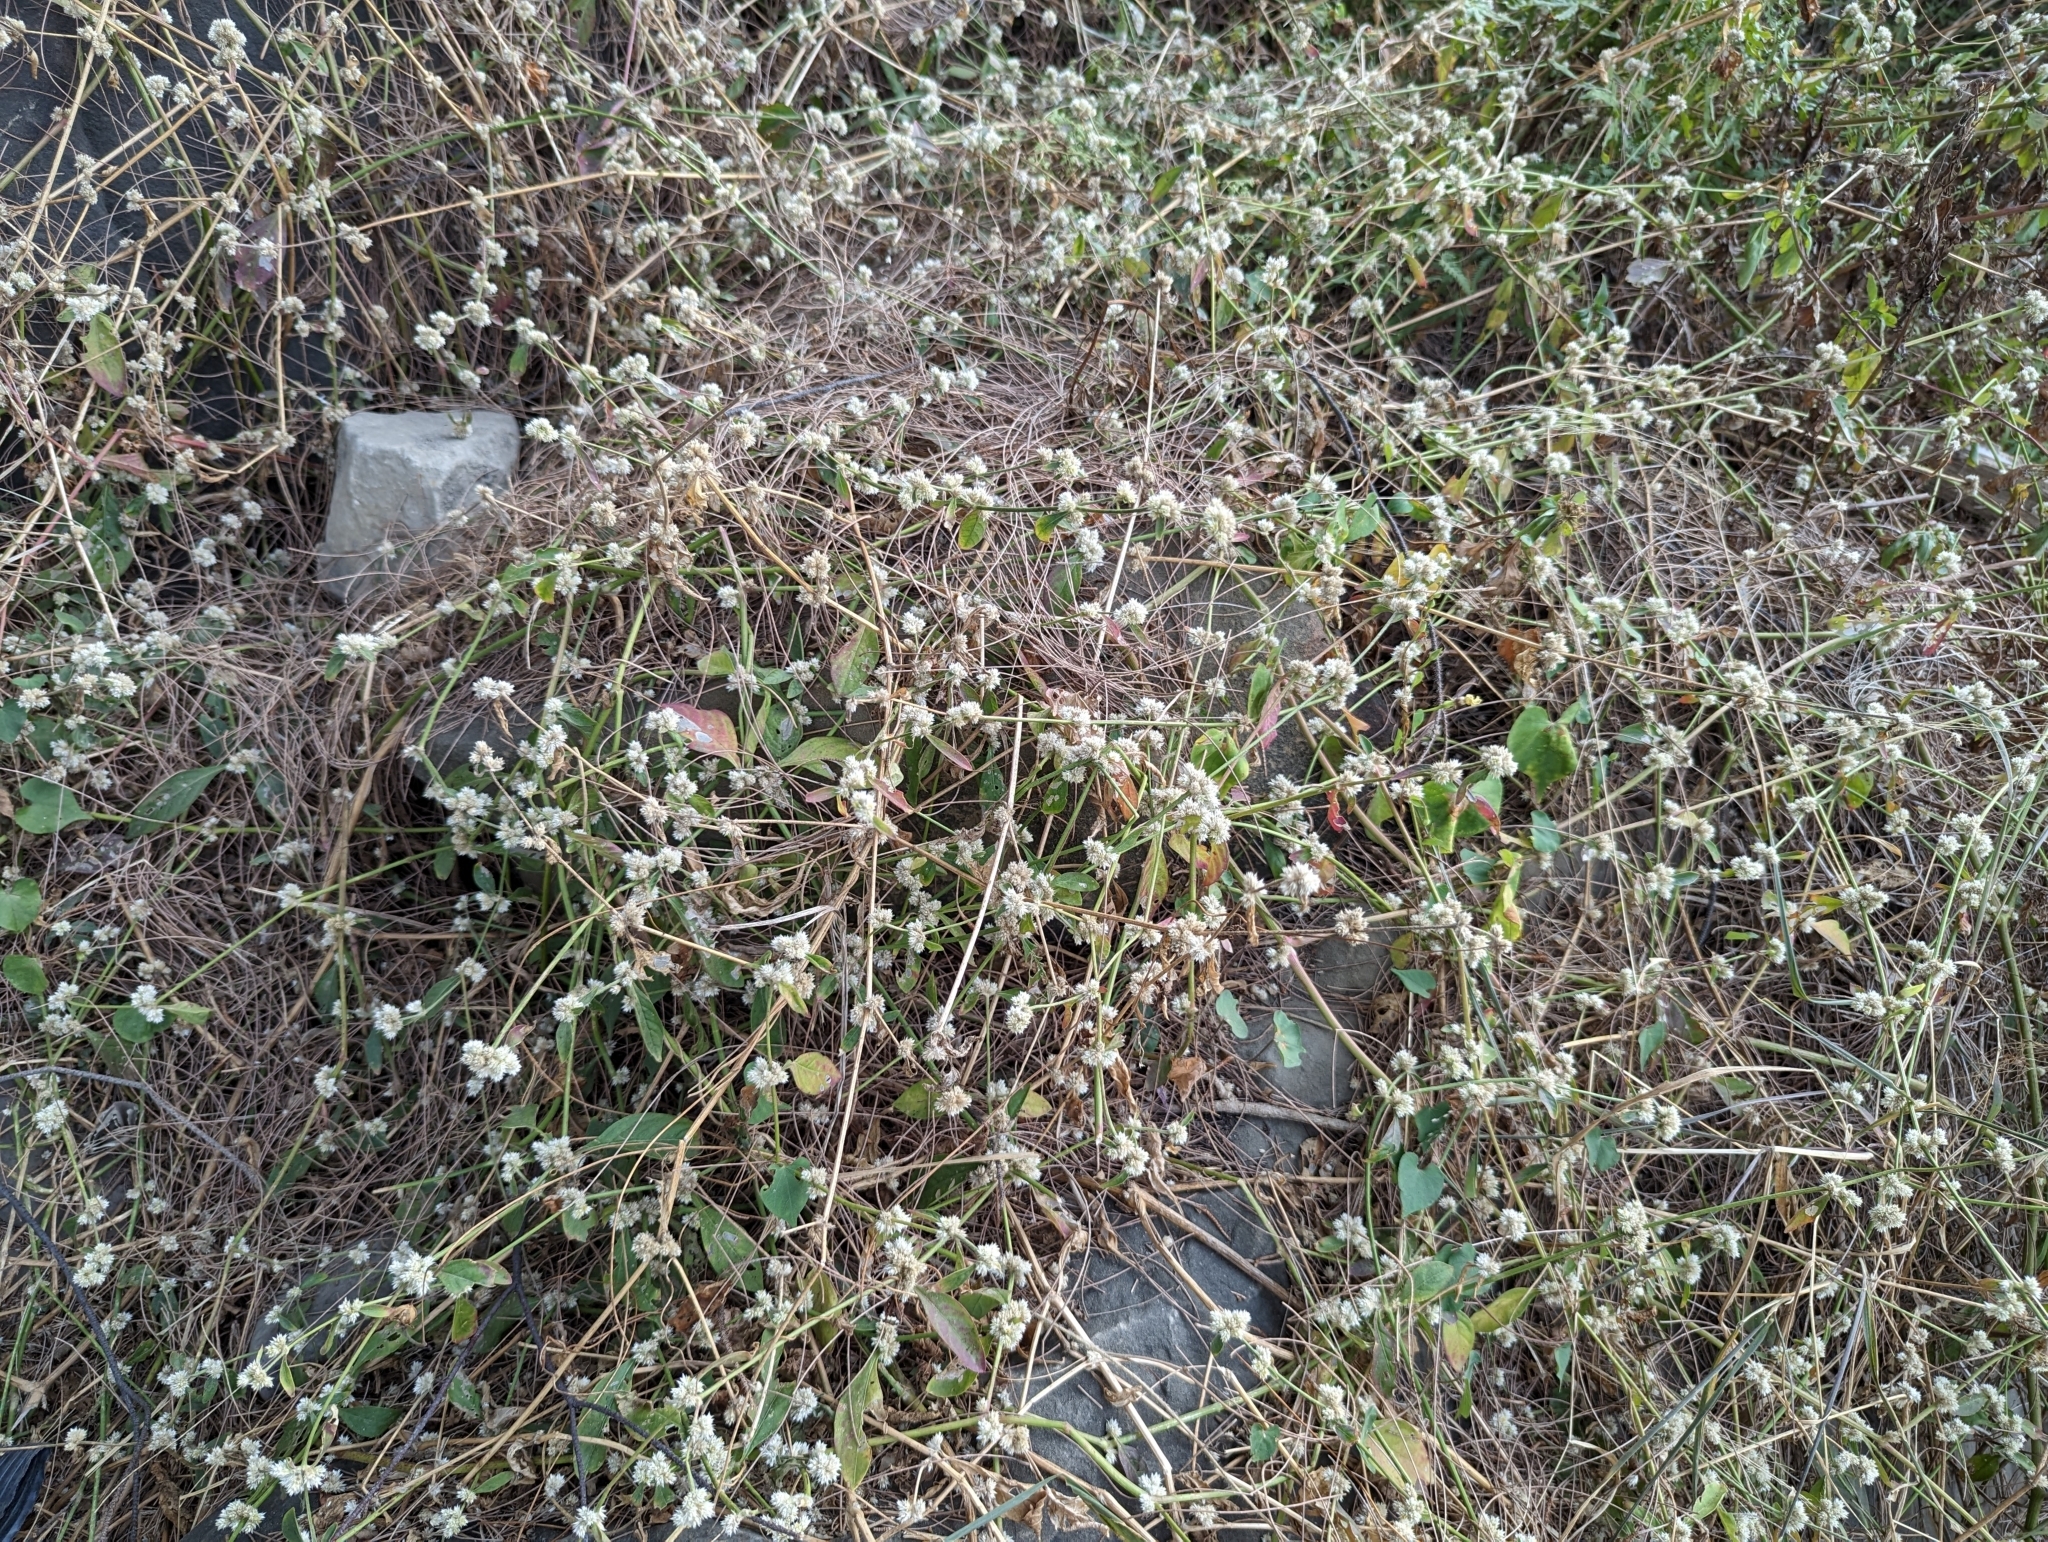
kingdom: Plantae
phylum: Tracheophyta
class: Magnoliopsida
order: Caryophyllales
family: Amaranthaceae
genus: Alternanthera
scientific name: Alternanthera ficoidea
